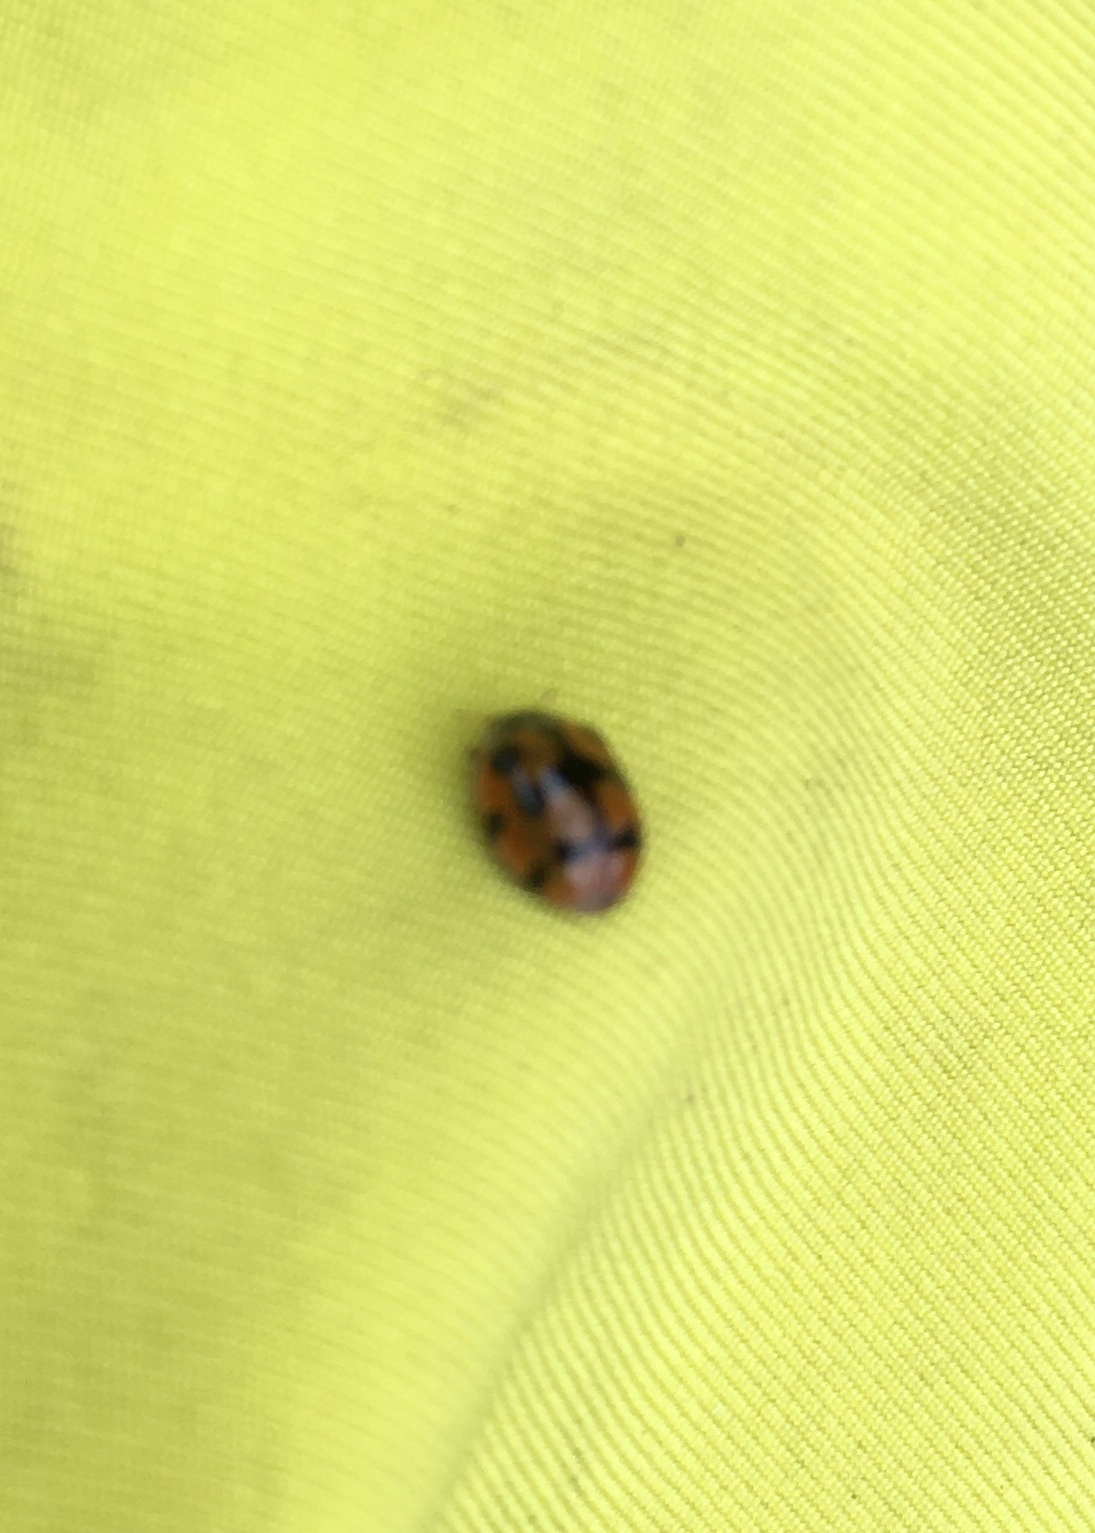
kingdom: Animalia
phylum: Arthropoda
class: Insecta
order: Coleoptera
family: Coccinellidae
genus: Adalia
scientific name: Adalia decempunctata
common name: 10-spot ladybird
